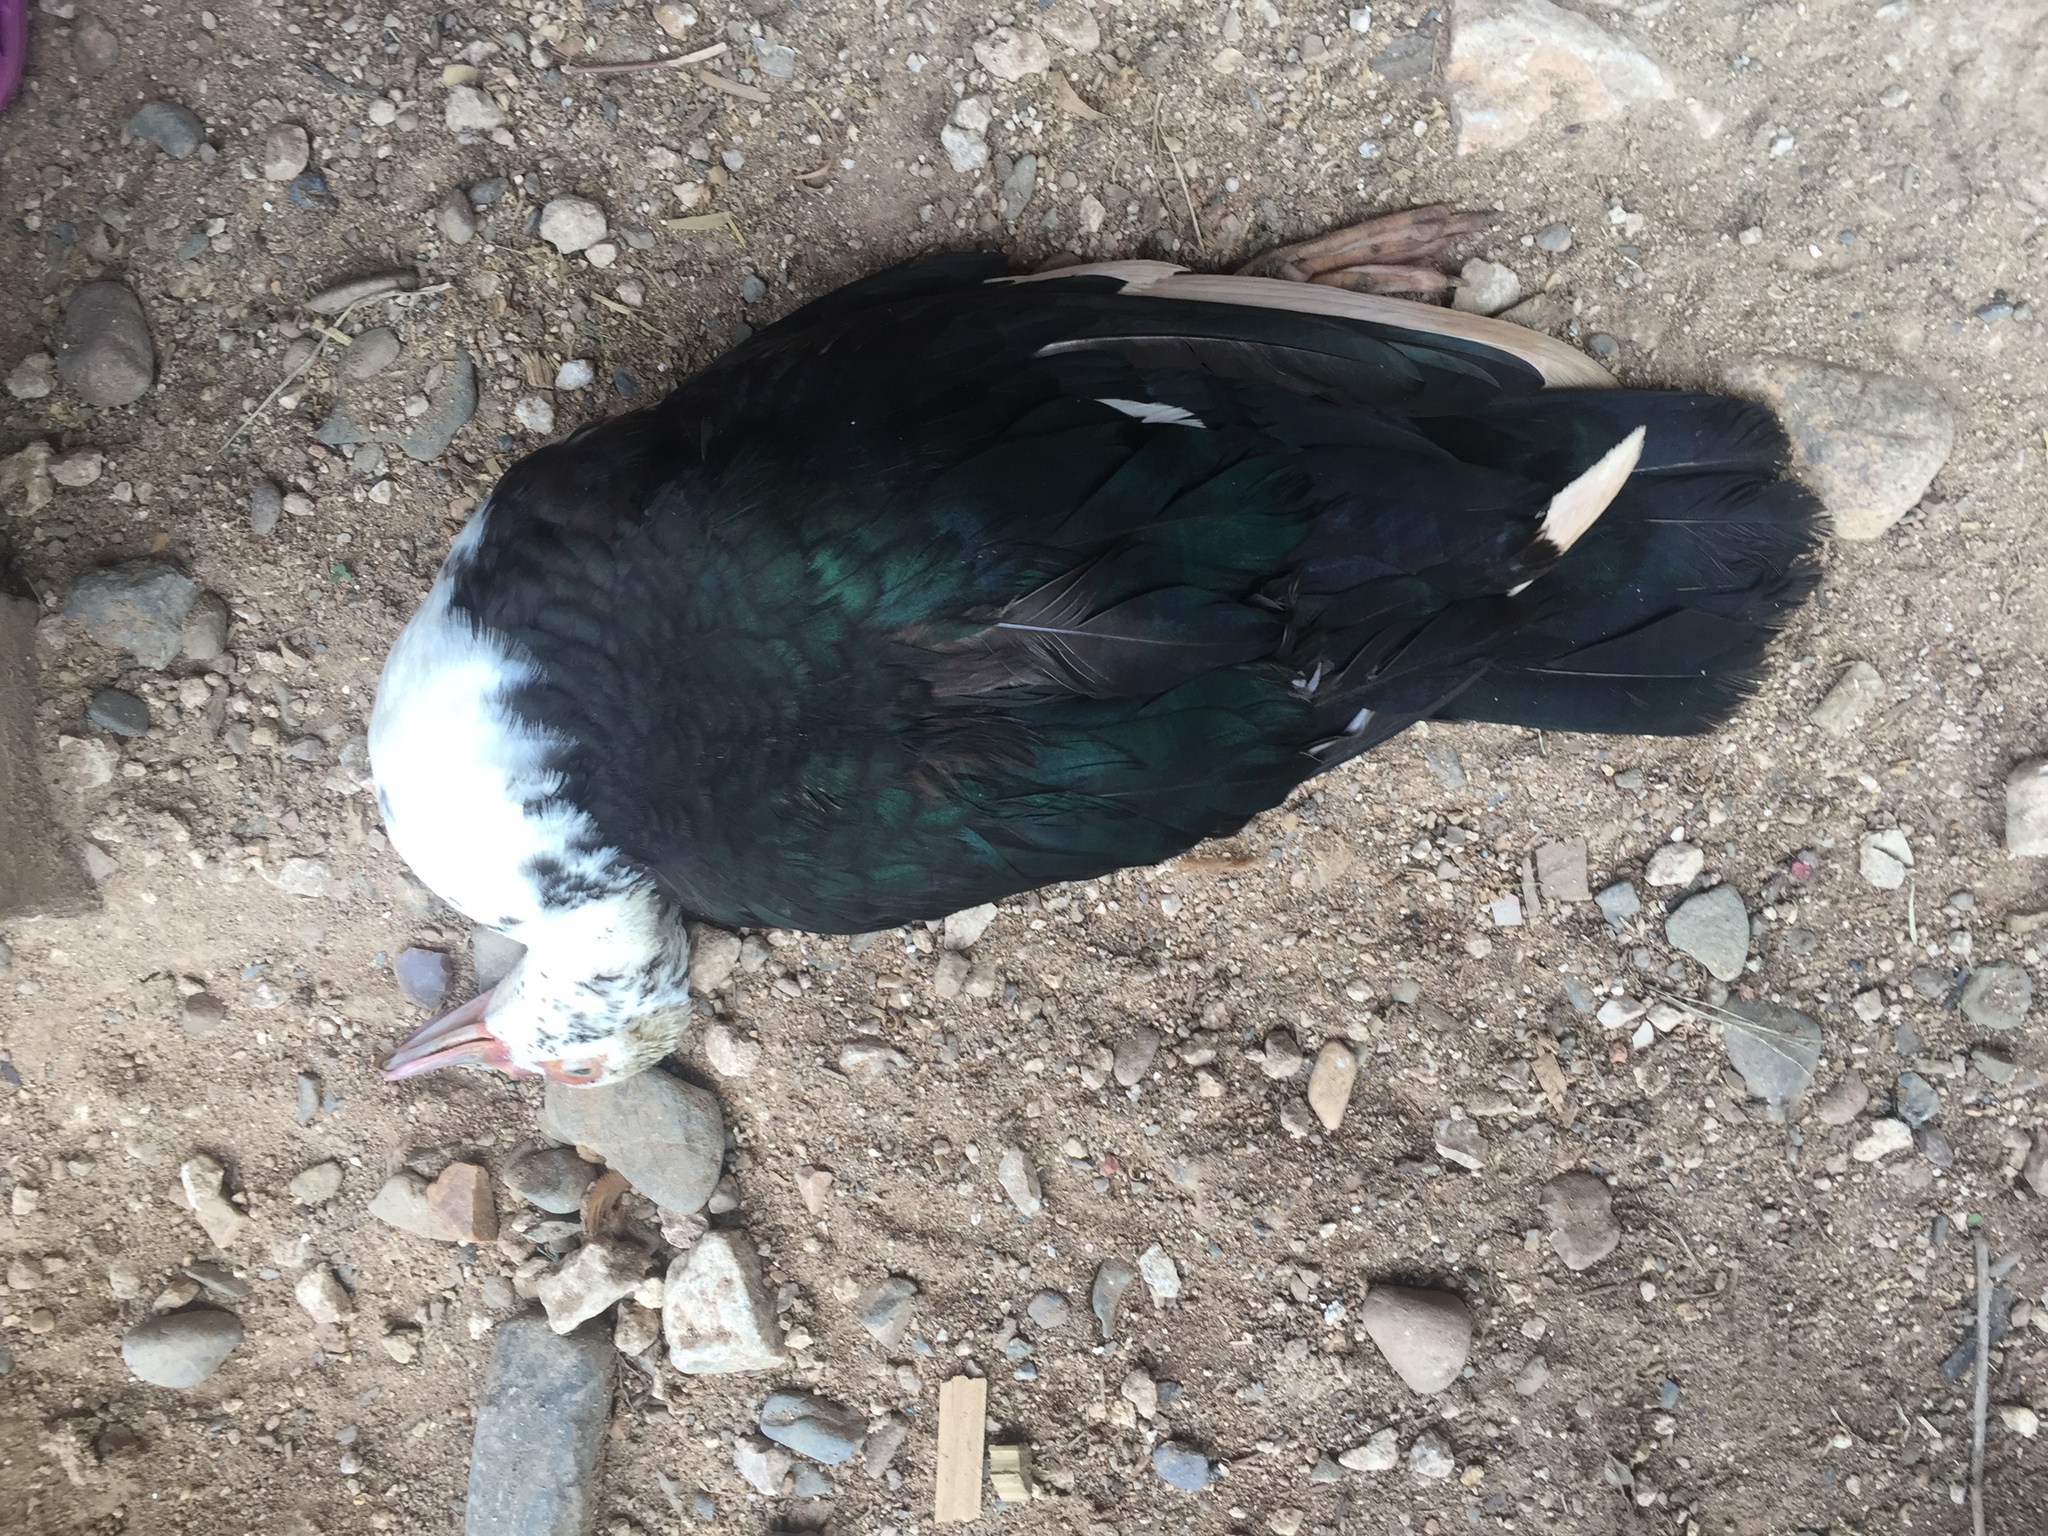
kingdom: Animalia
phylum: Chordata
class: Aves
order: Anseriformes
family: Anatidae
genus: Cairina
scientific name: Cairina moschata
